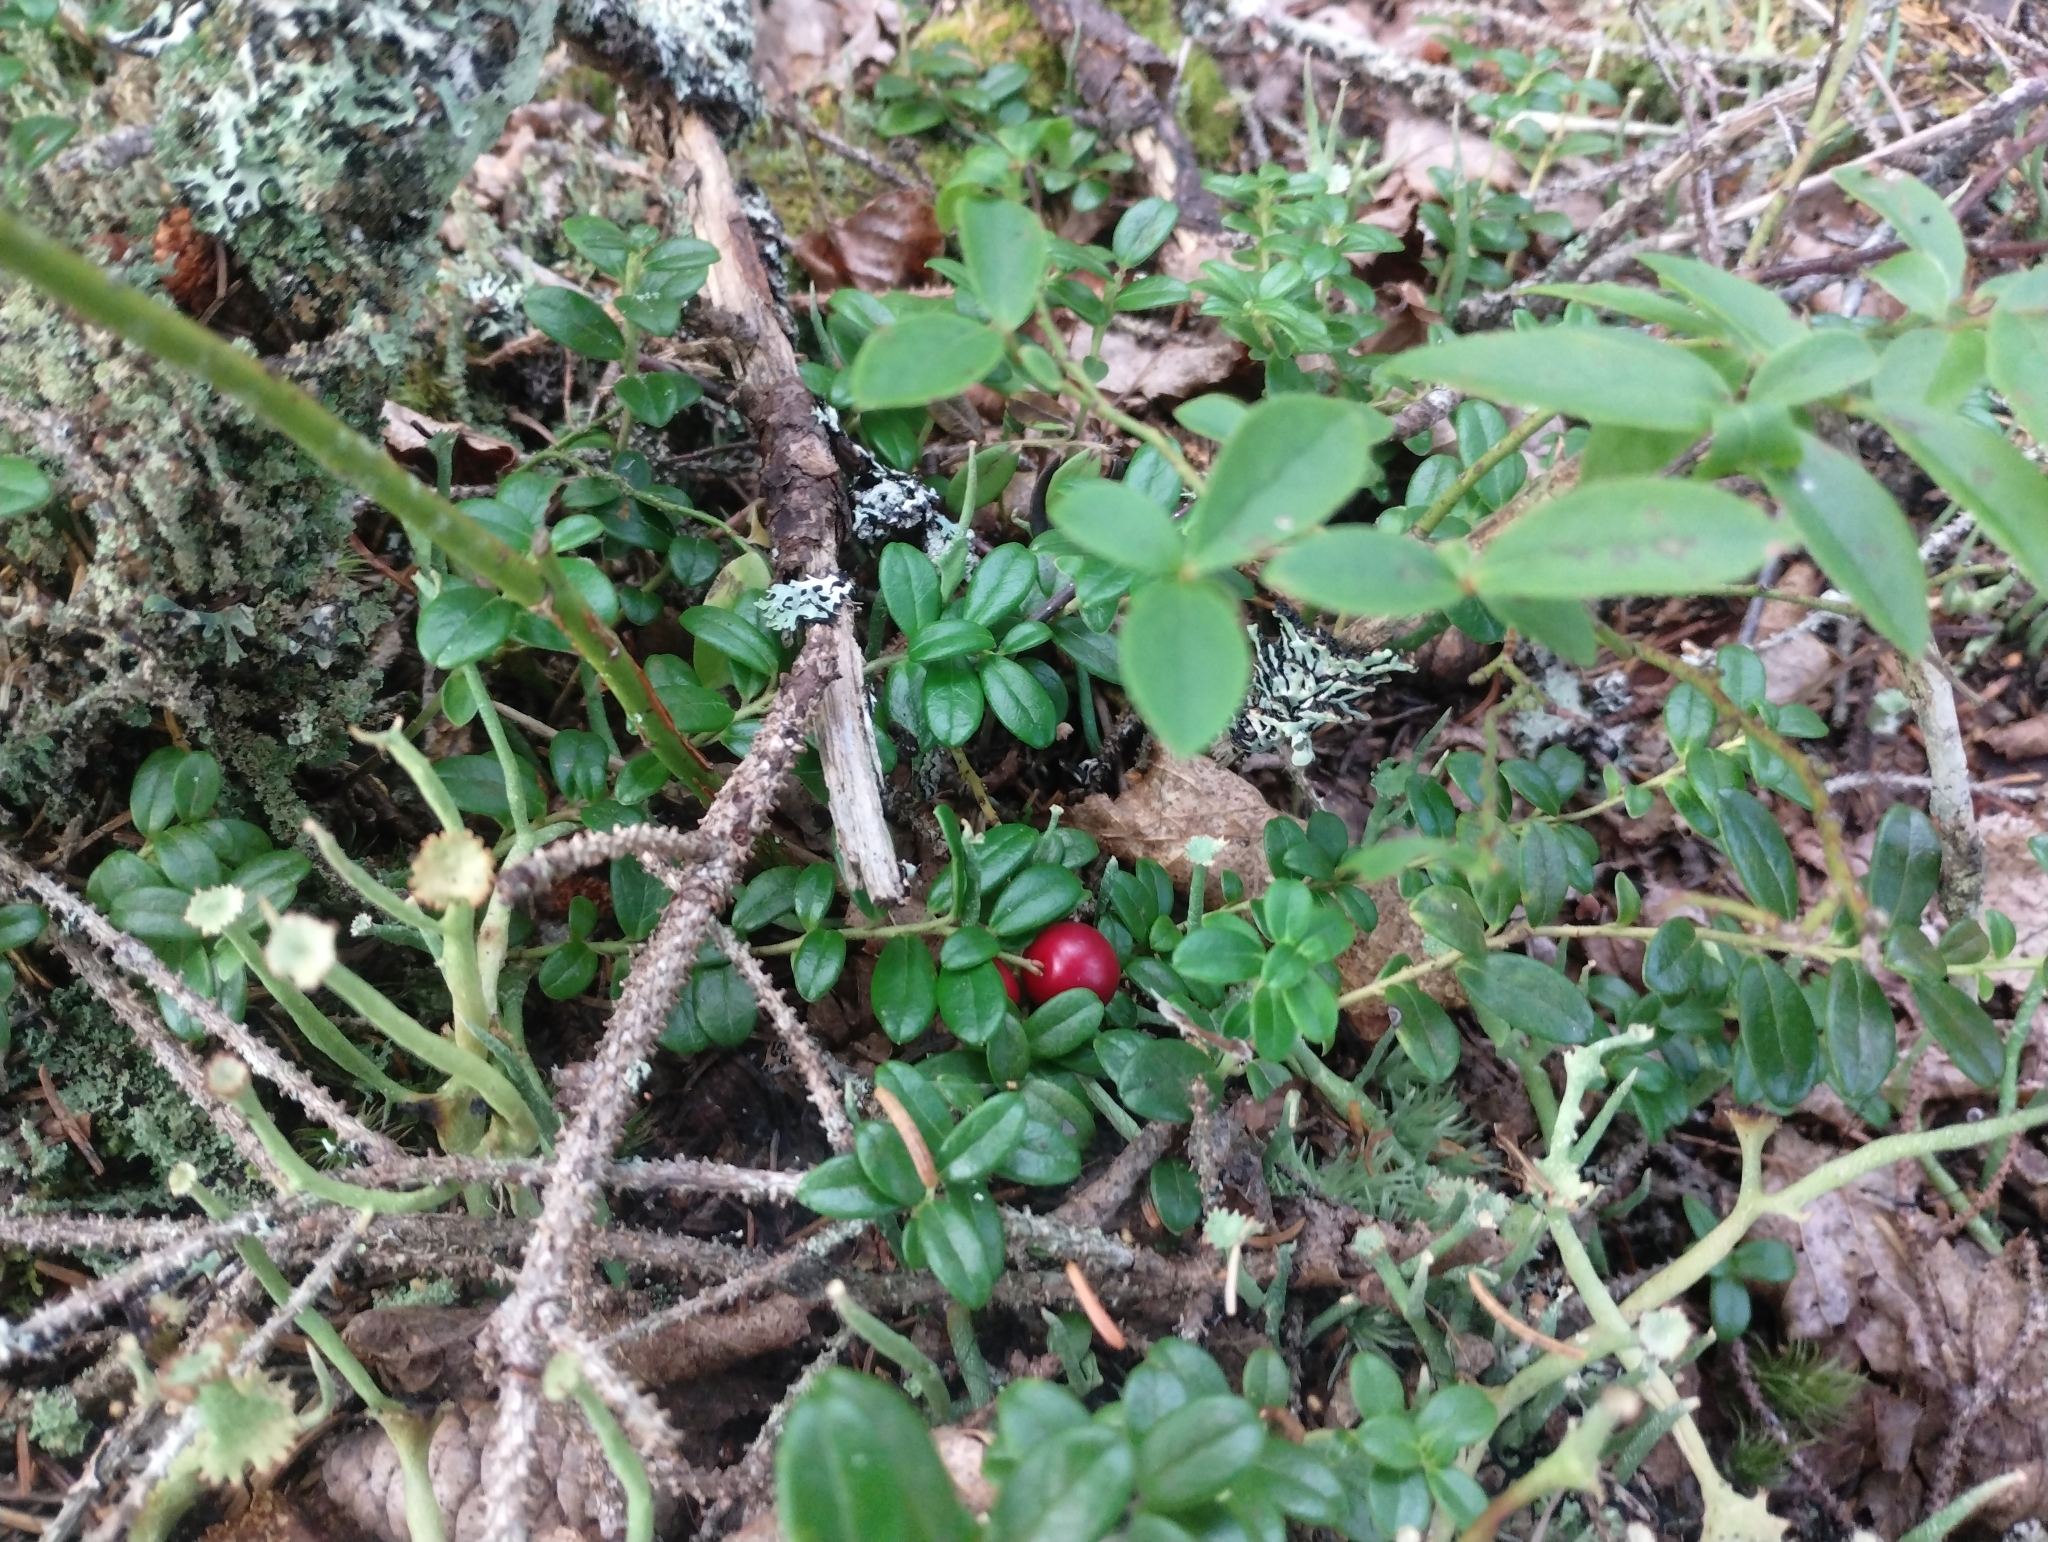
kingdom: Plantae
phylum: Tracheophyta
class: Magnoliopsida
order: Ericales
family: Ericaceae
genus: Vaccinium
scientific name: Vaccinium vitis-idaea
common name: Cowberry
